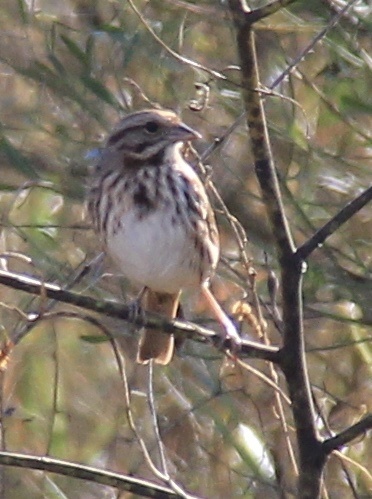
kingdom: Animalia
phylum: Chordata
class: Aves
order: Passeriformes
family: Passerellidae
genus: Melospiza
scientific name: Melospiza melodia
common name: Song sparrow
